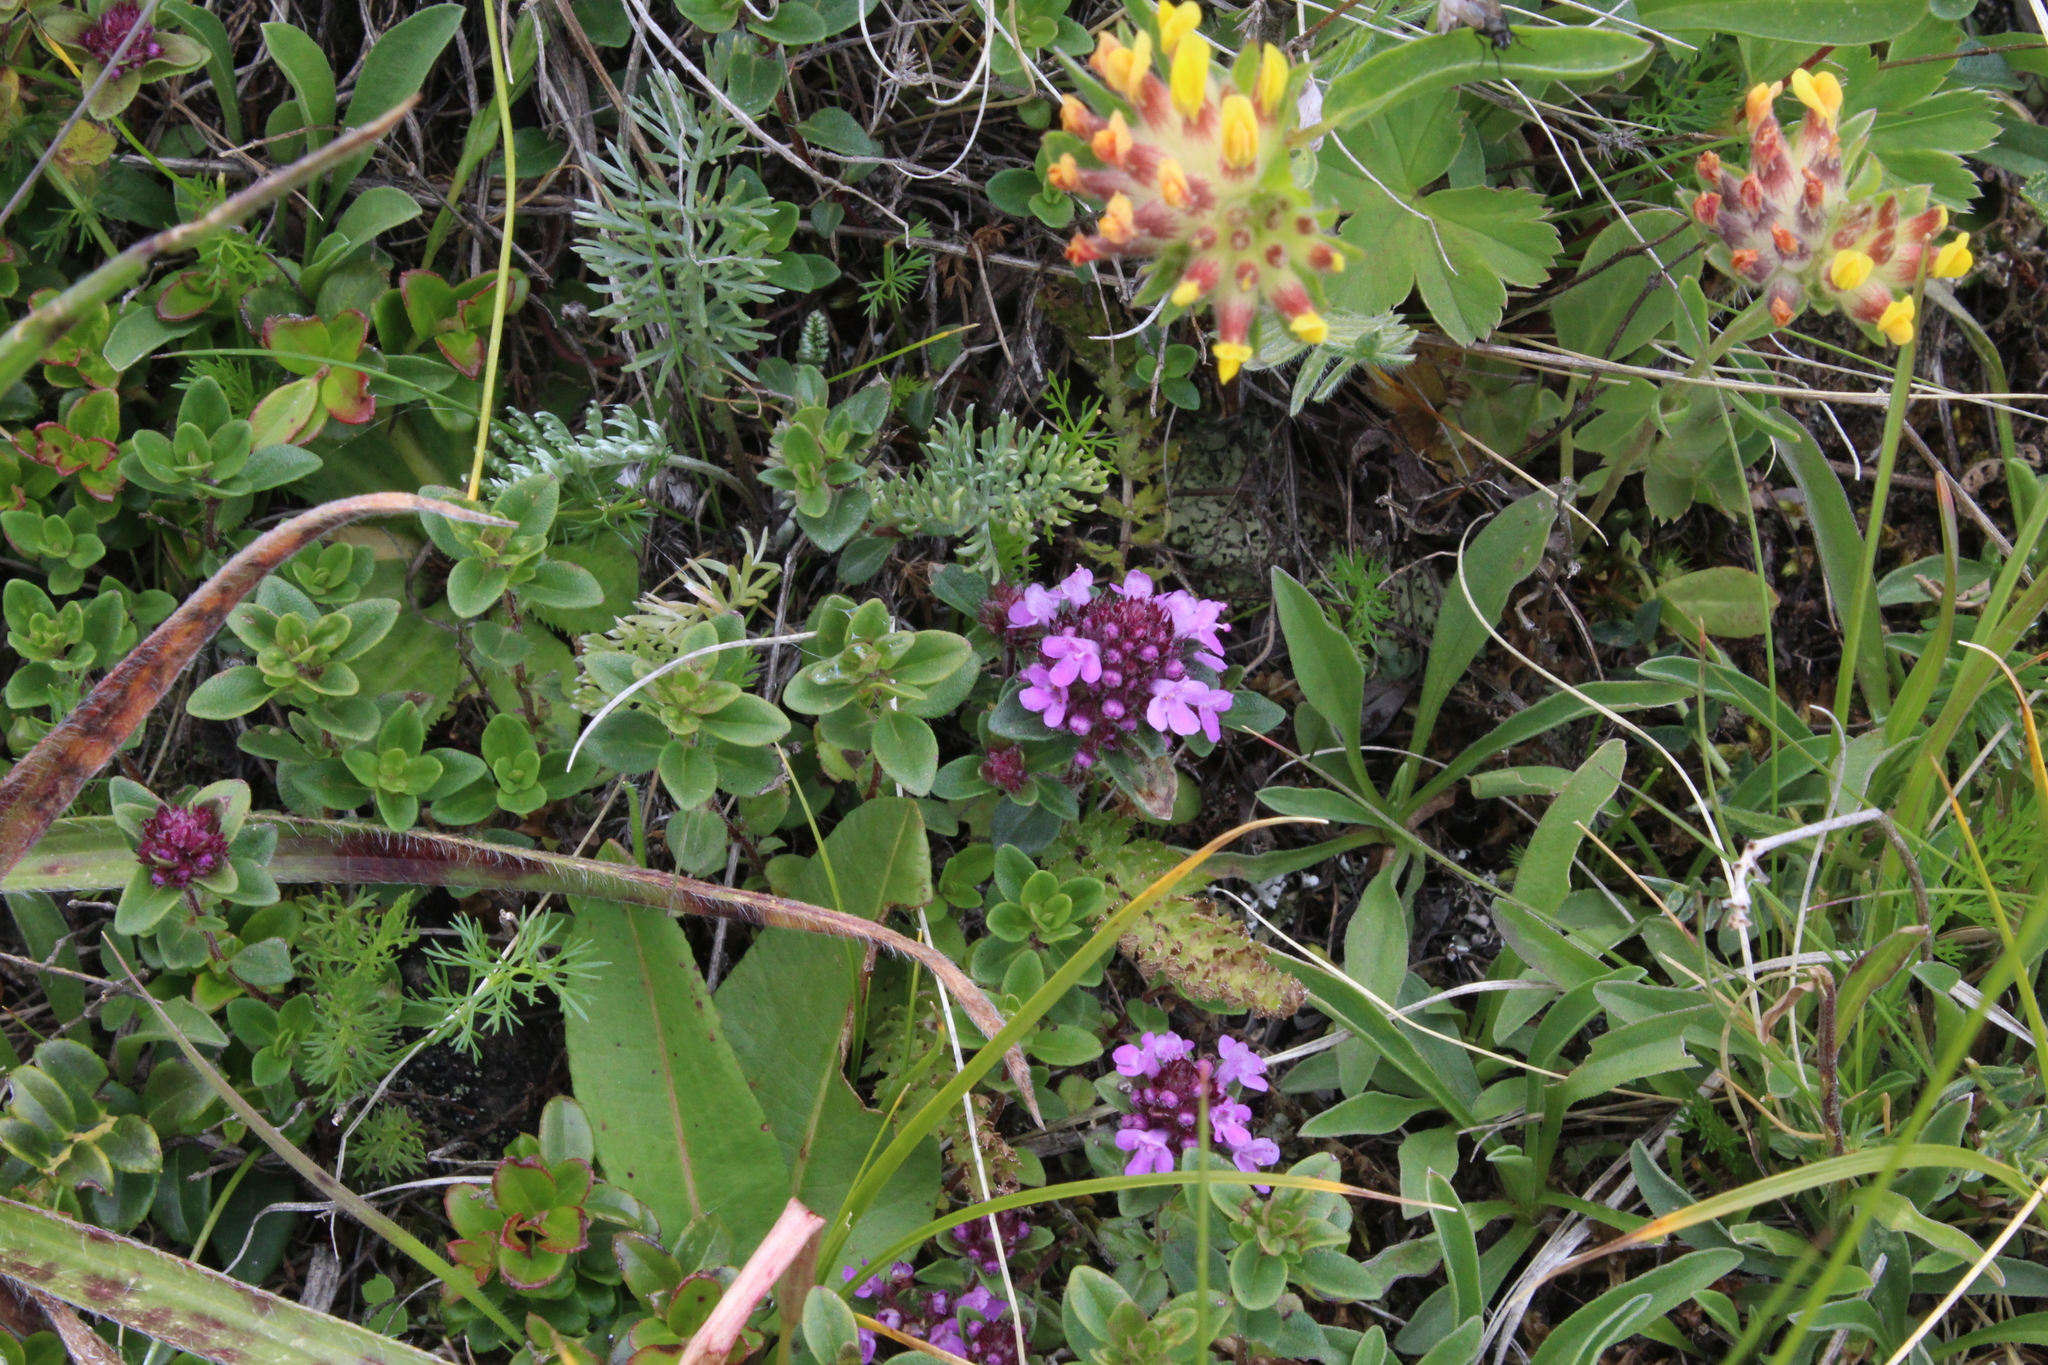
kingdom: Plantae
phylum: Tracheophyta
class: Magnoliopsida
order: Lamiales
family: Lamiaceae
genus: Thymus
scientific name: Thymus nummularius
